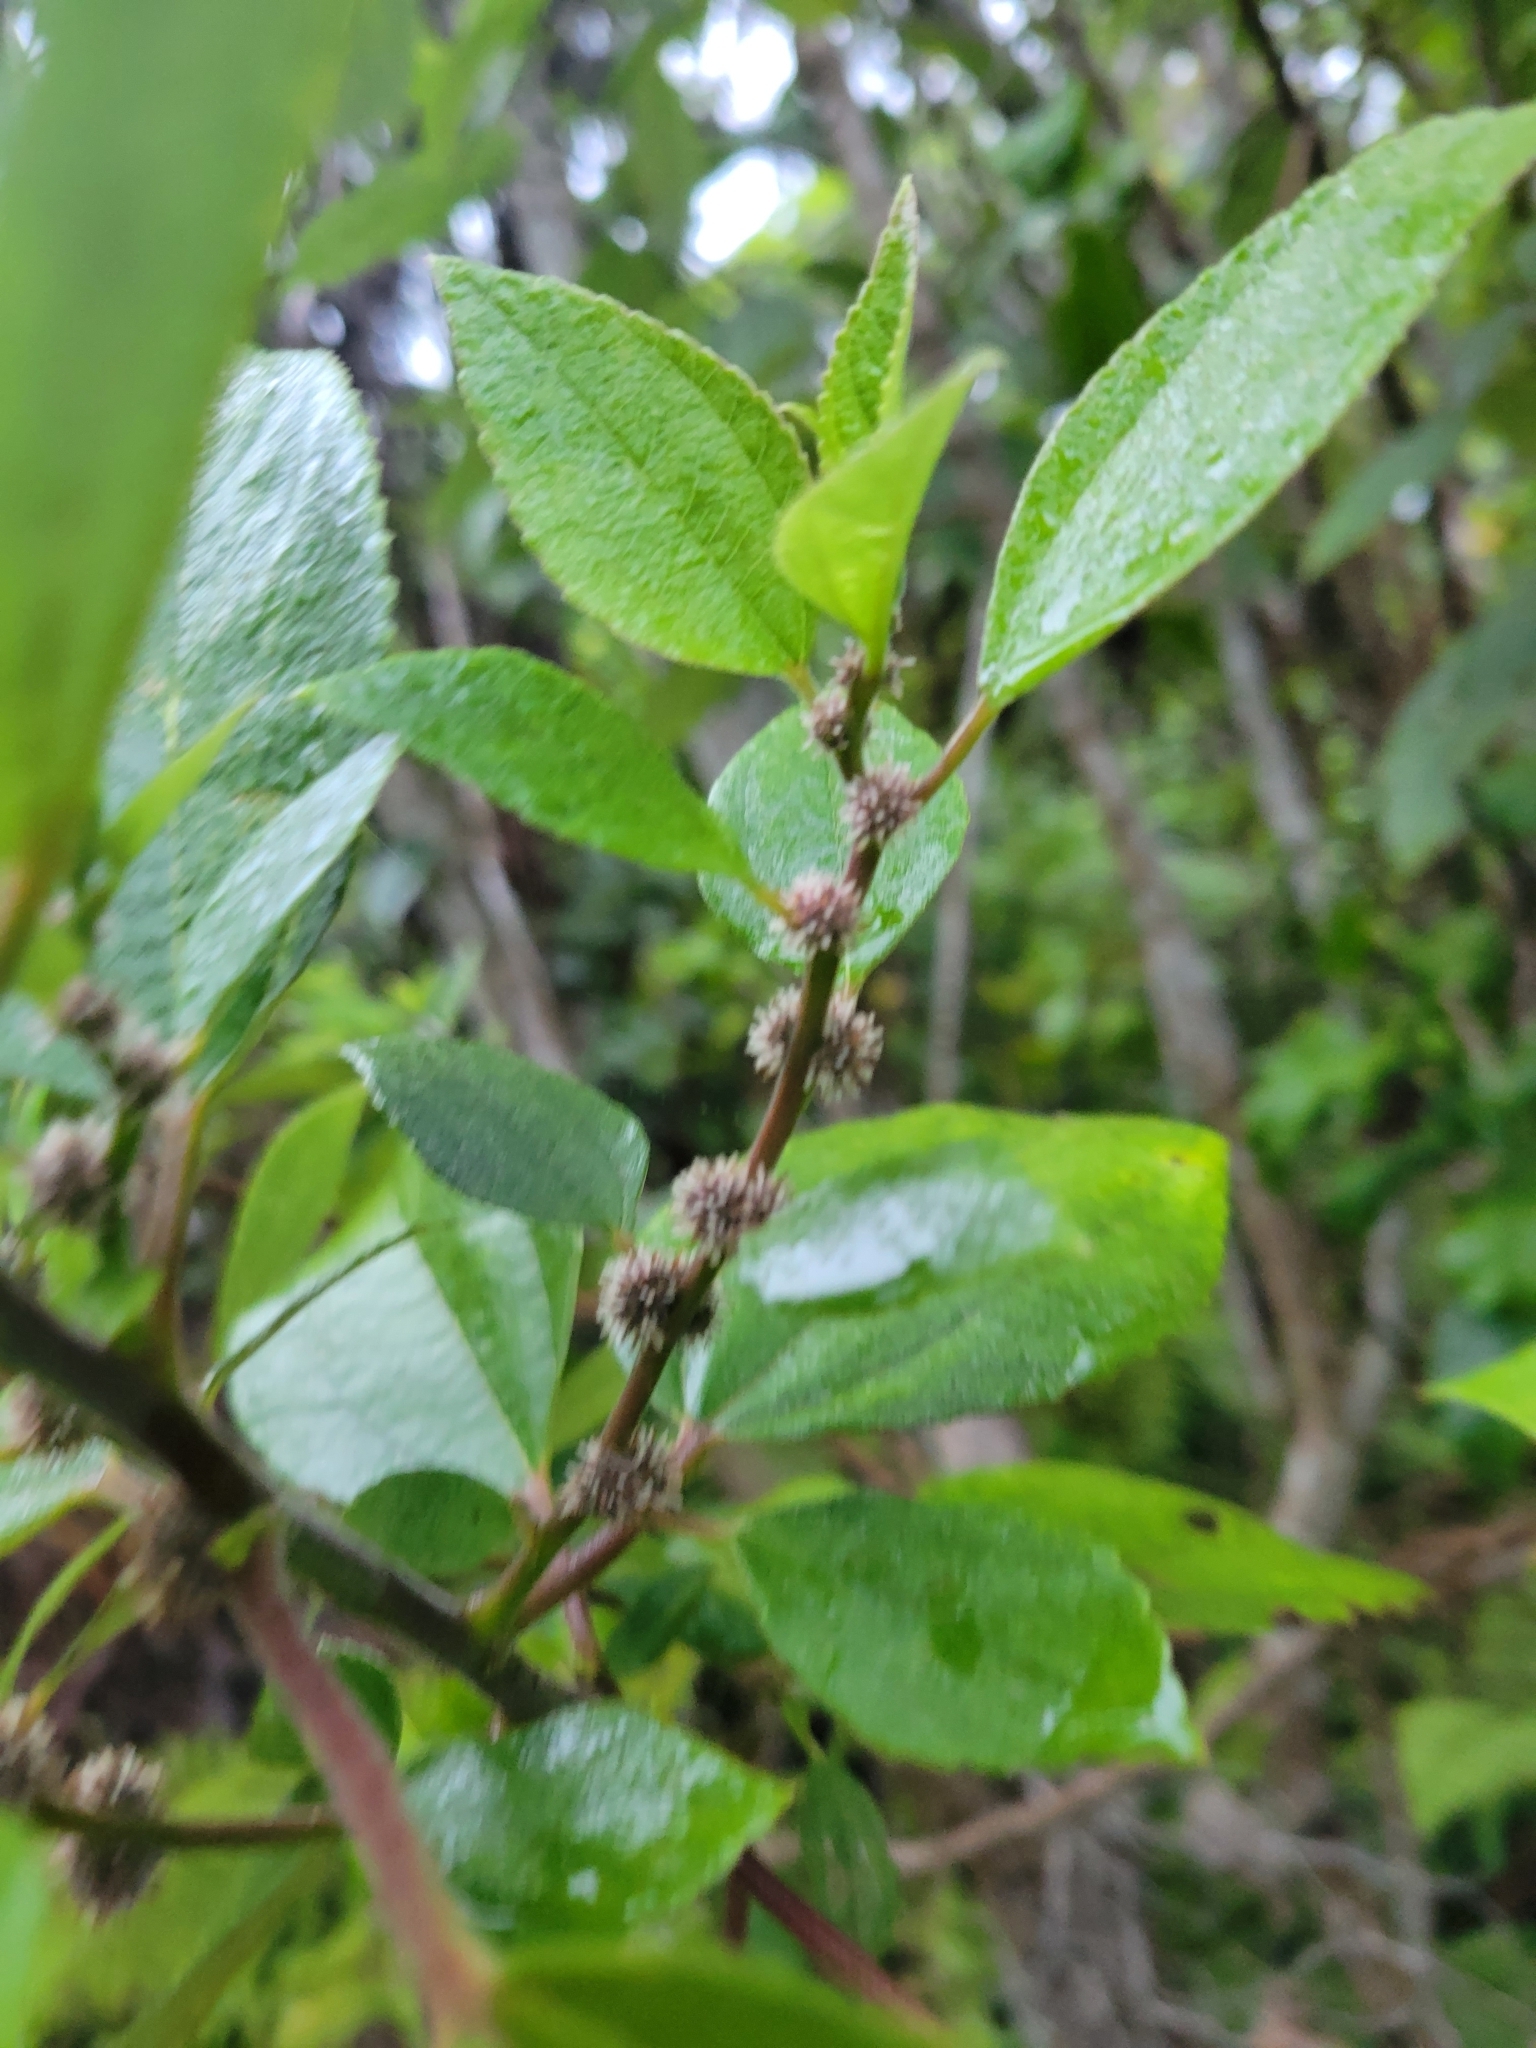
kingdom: Plantae
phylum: Tracheophyta
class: Magnoliopsida
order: Rosales
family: Urticaceae
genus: Pipturus
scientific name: Pipturus albidus
